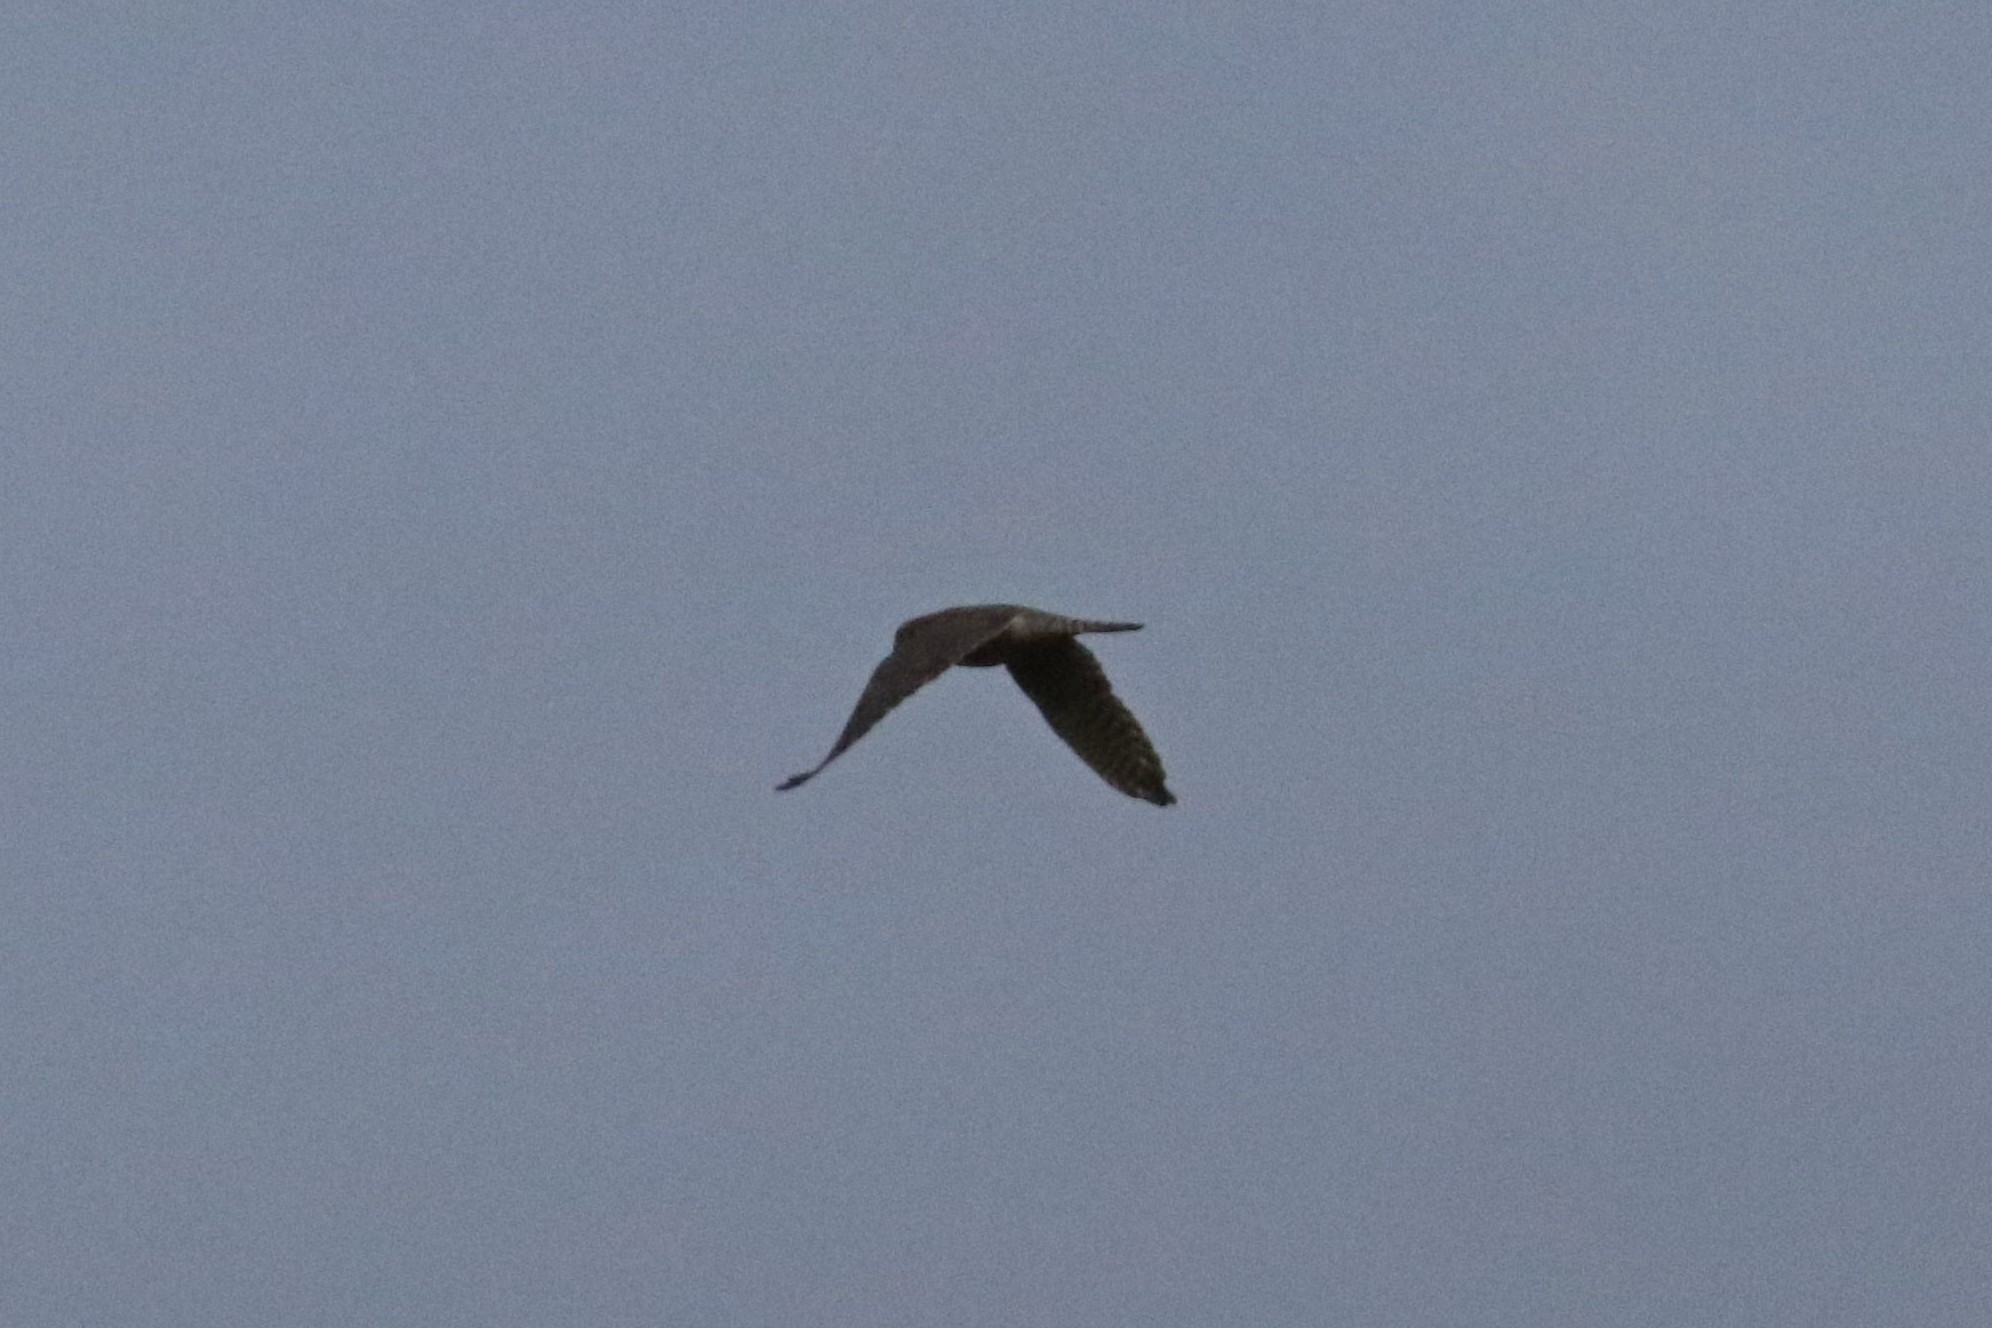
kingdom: Animalia
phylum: Chordata
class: Aves
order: Falconiformes
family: Falconidae
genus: Falco
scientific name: Falco columbarius
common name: Merlin
